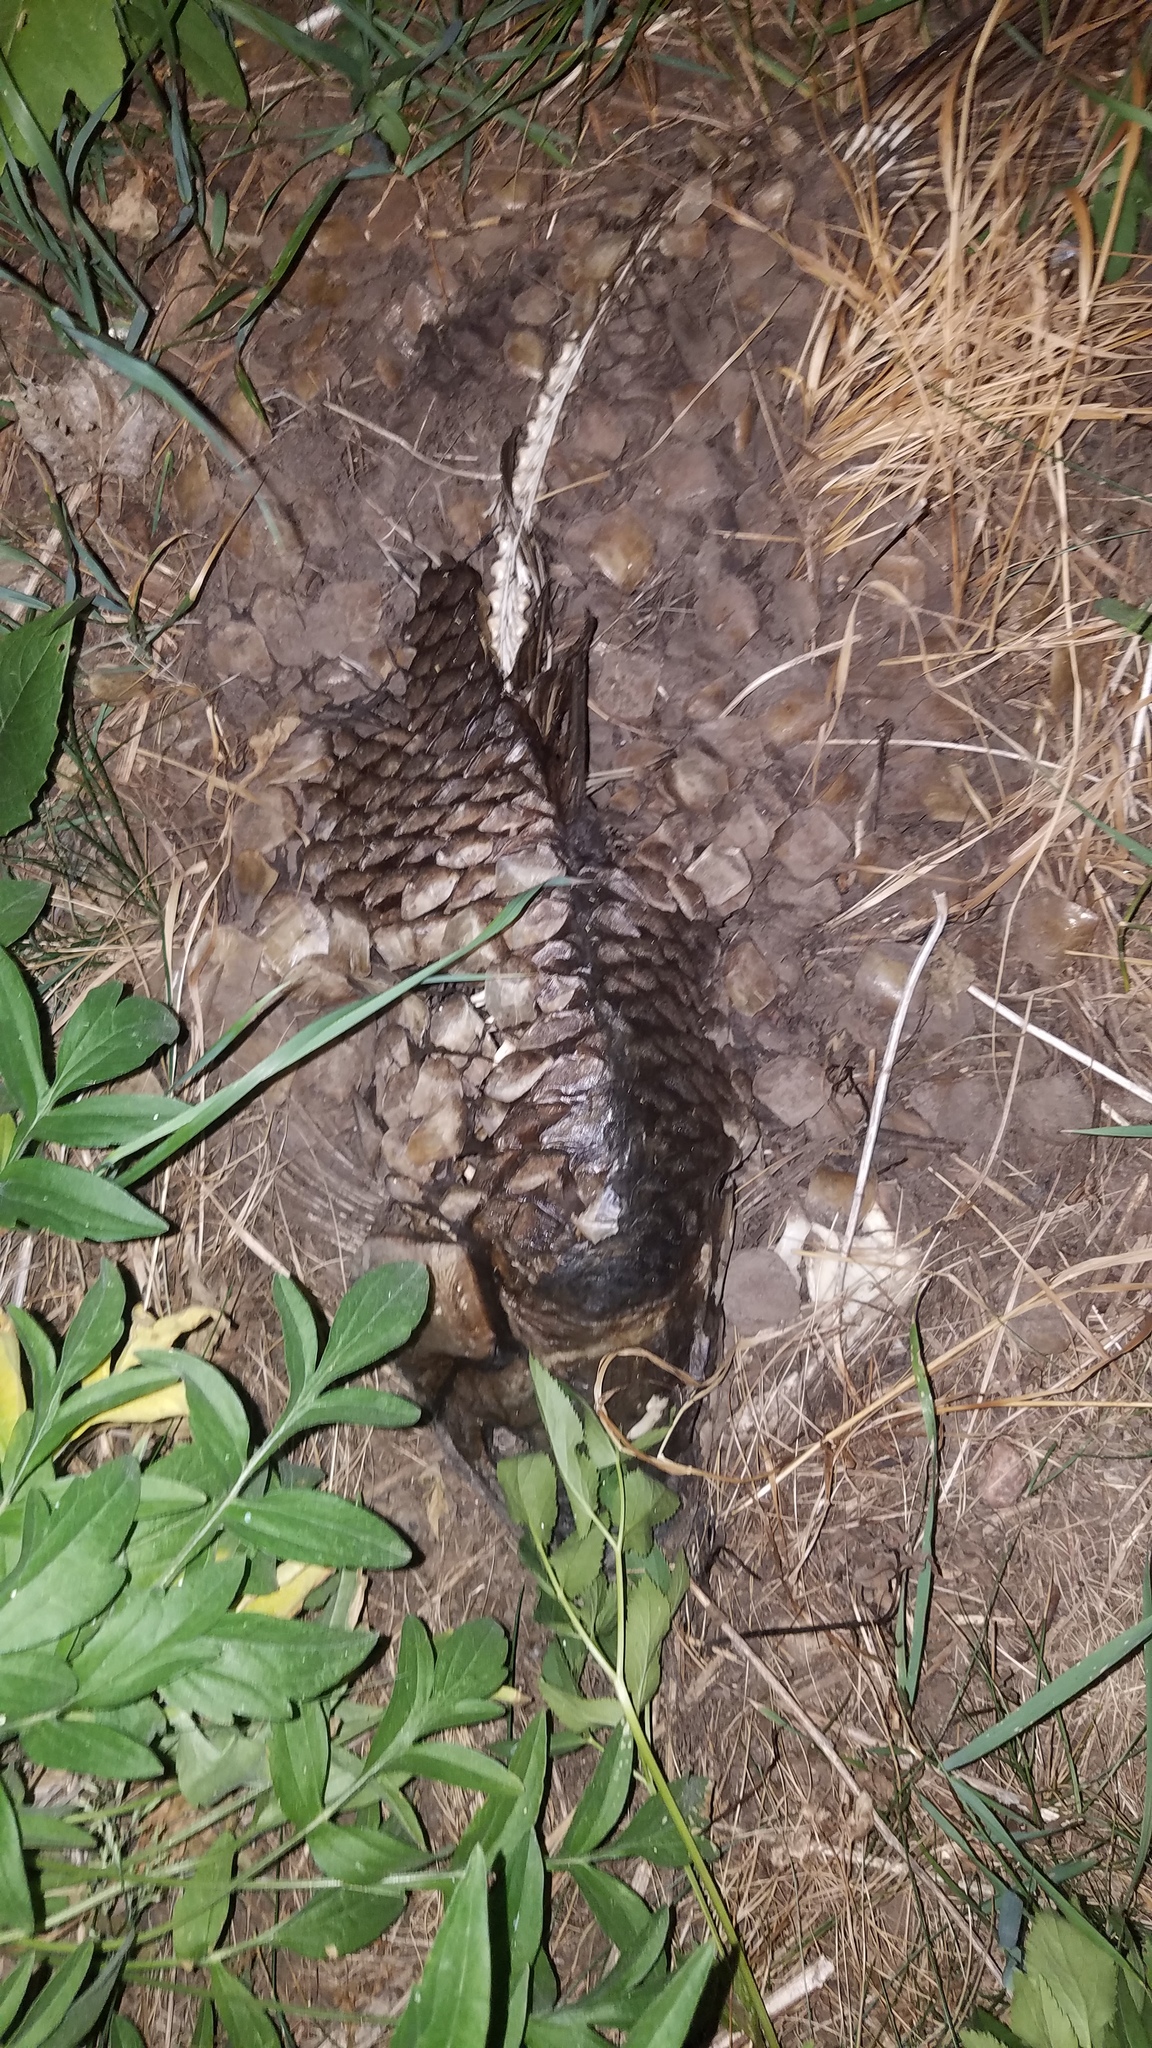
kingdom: Animalia
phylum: Chordata
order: Cypriniformes
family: Cyprinidae
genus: Cyprinus
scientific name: Cyprinus carpio
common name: Common carp
